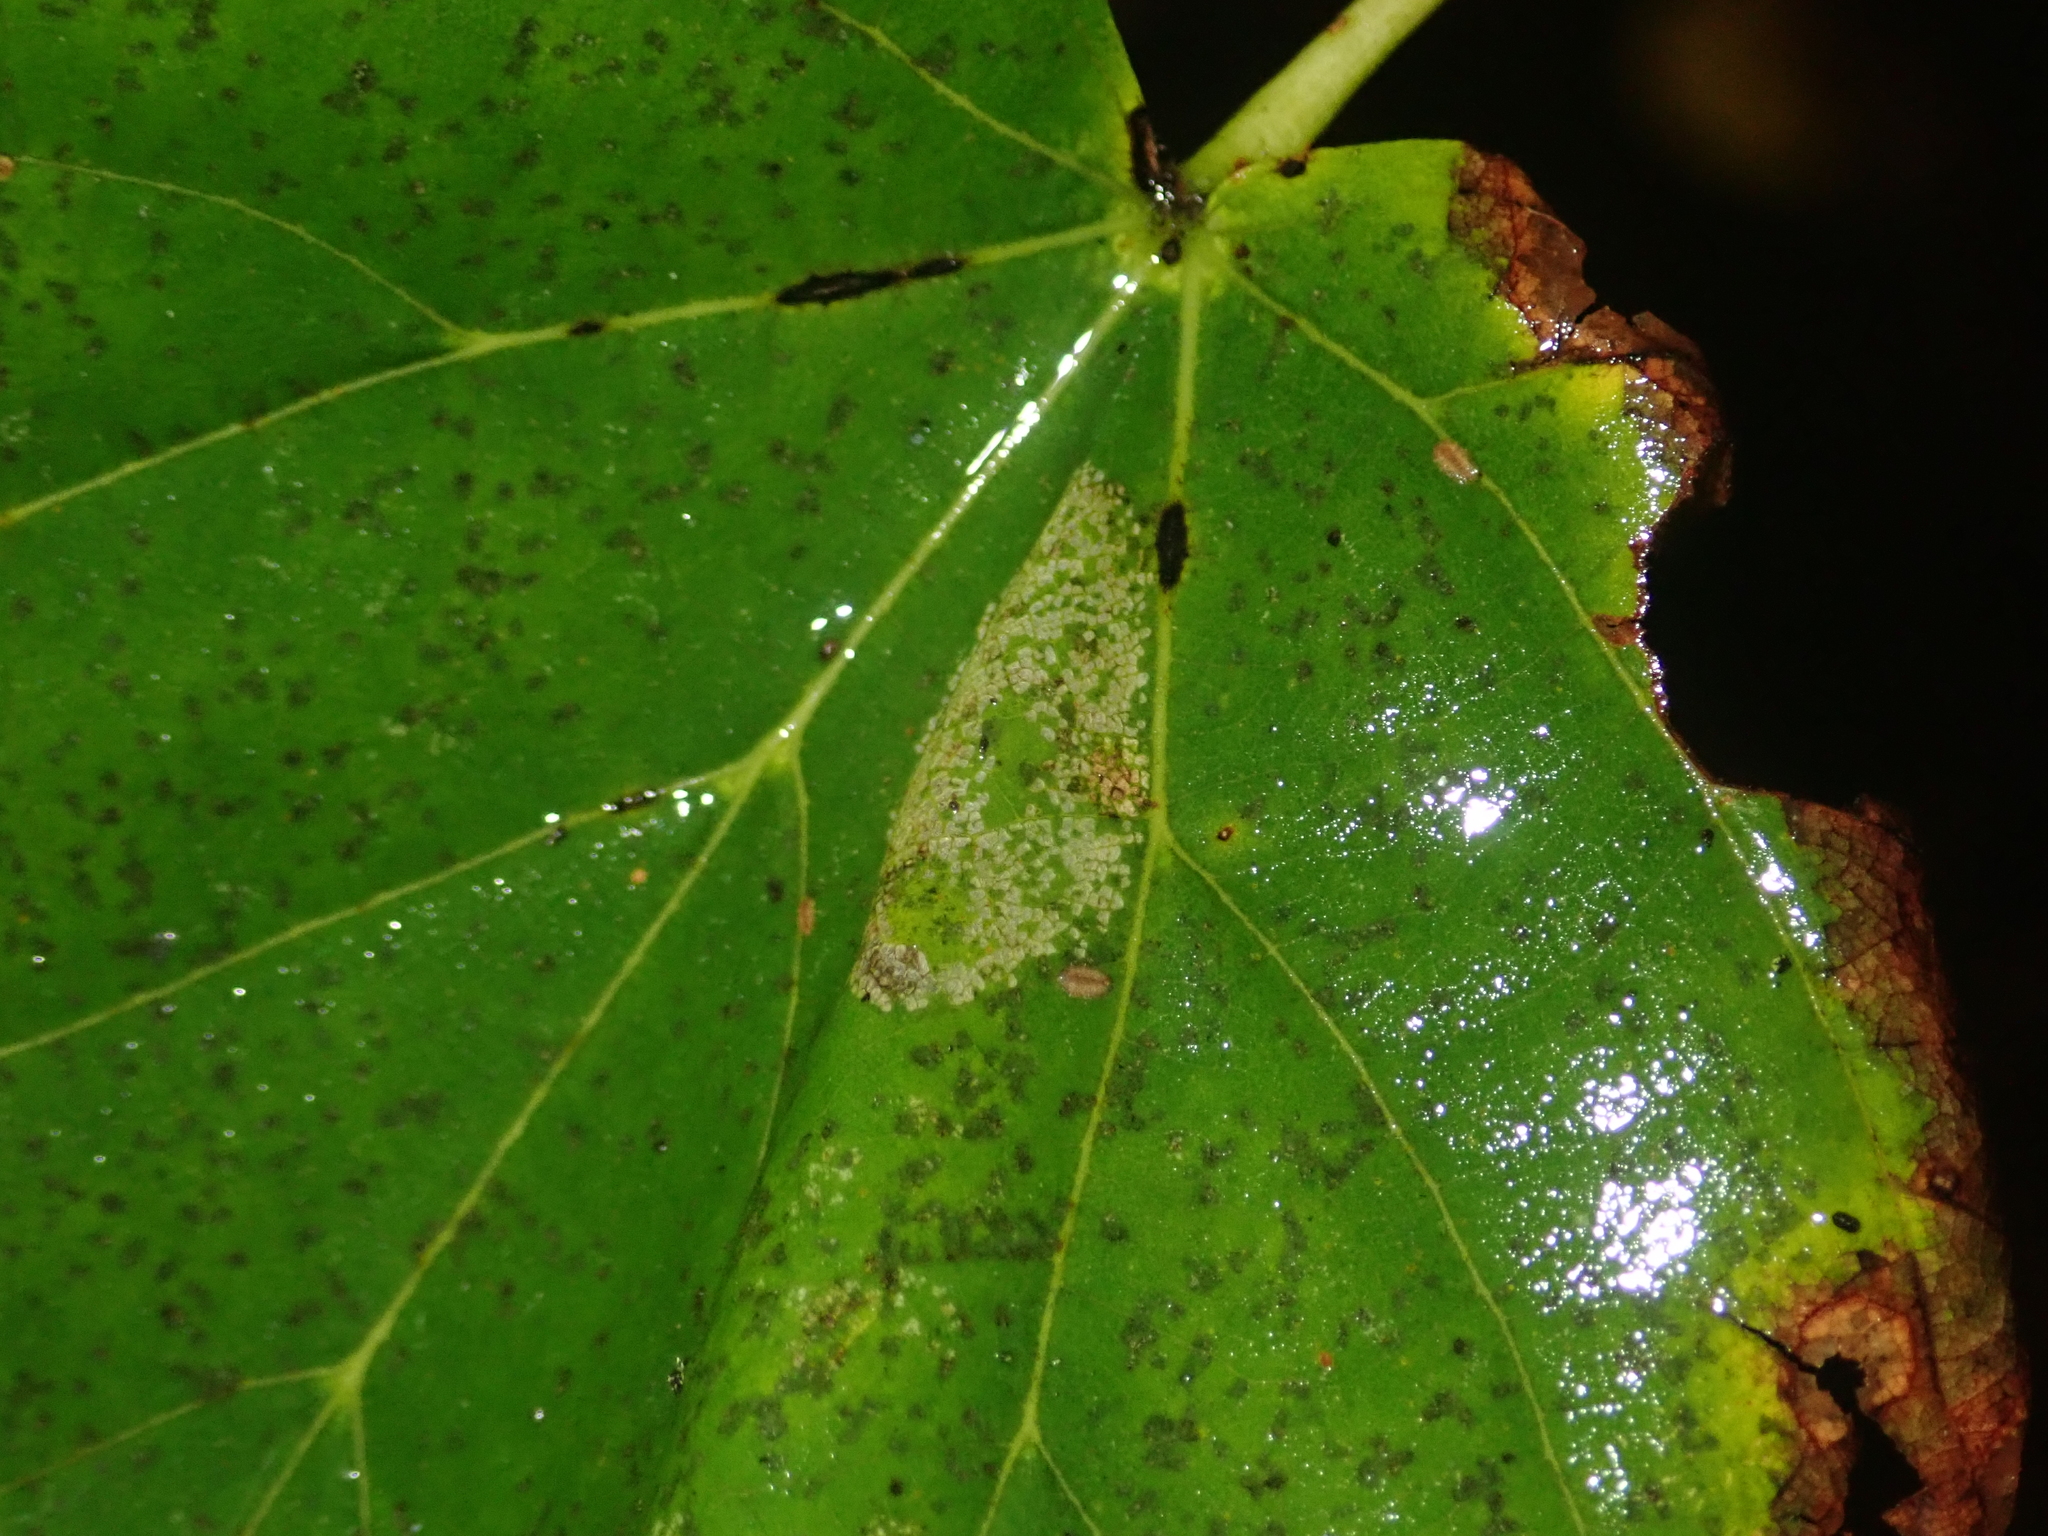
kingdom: Animalia
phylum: Arthropoda
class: Insecta
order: Lepidoptera
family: Gracillariidae
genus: Phyllonorycter
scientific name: Phyllonorycter issikii
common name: Linden midget
